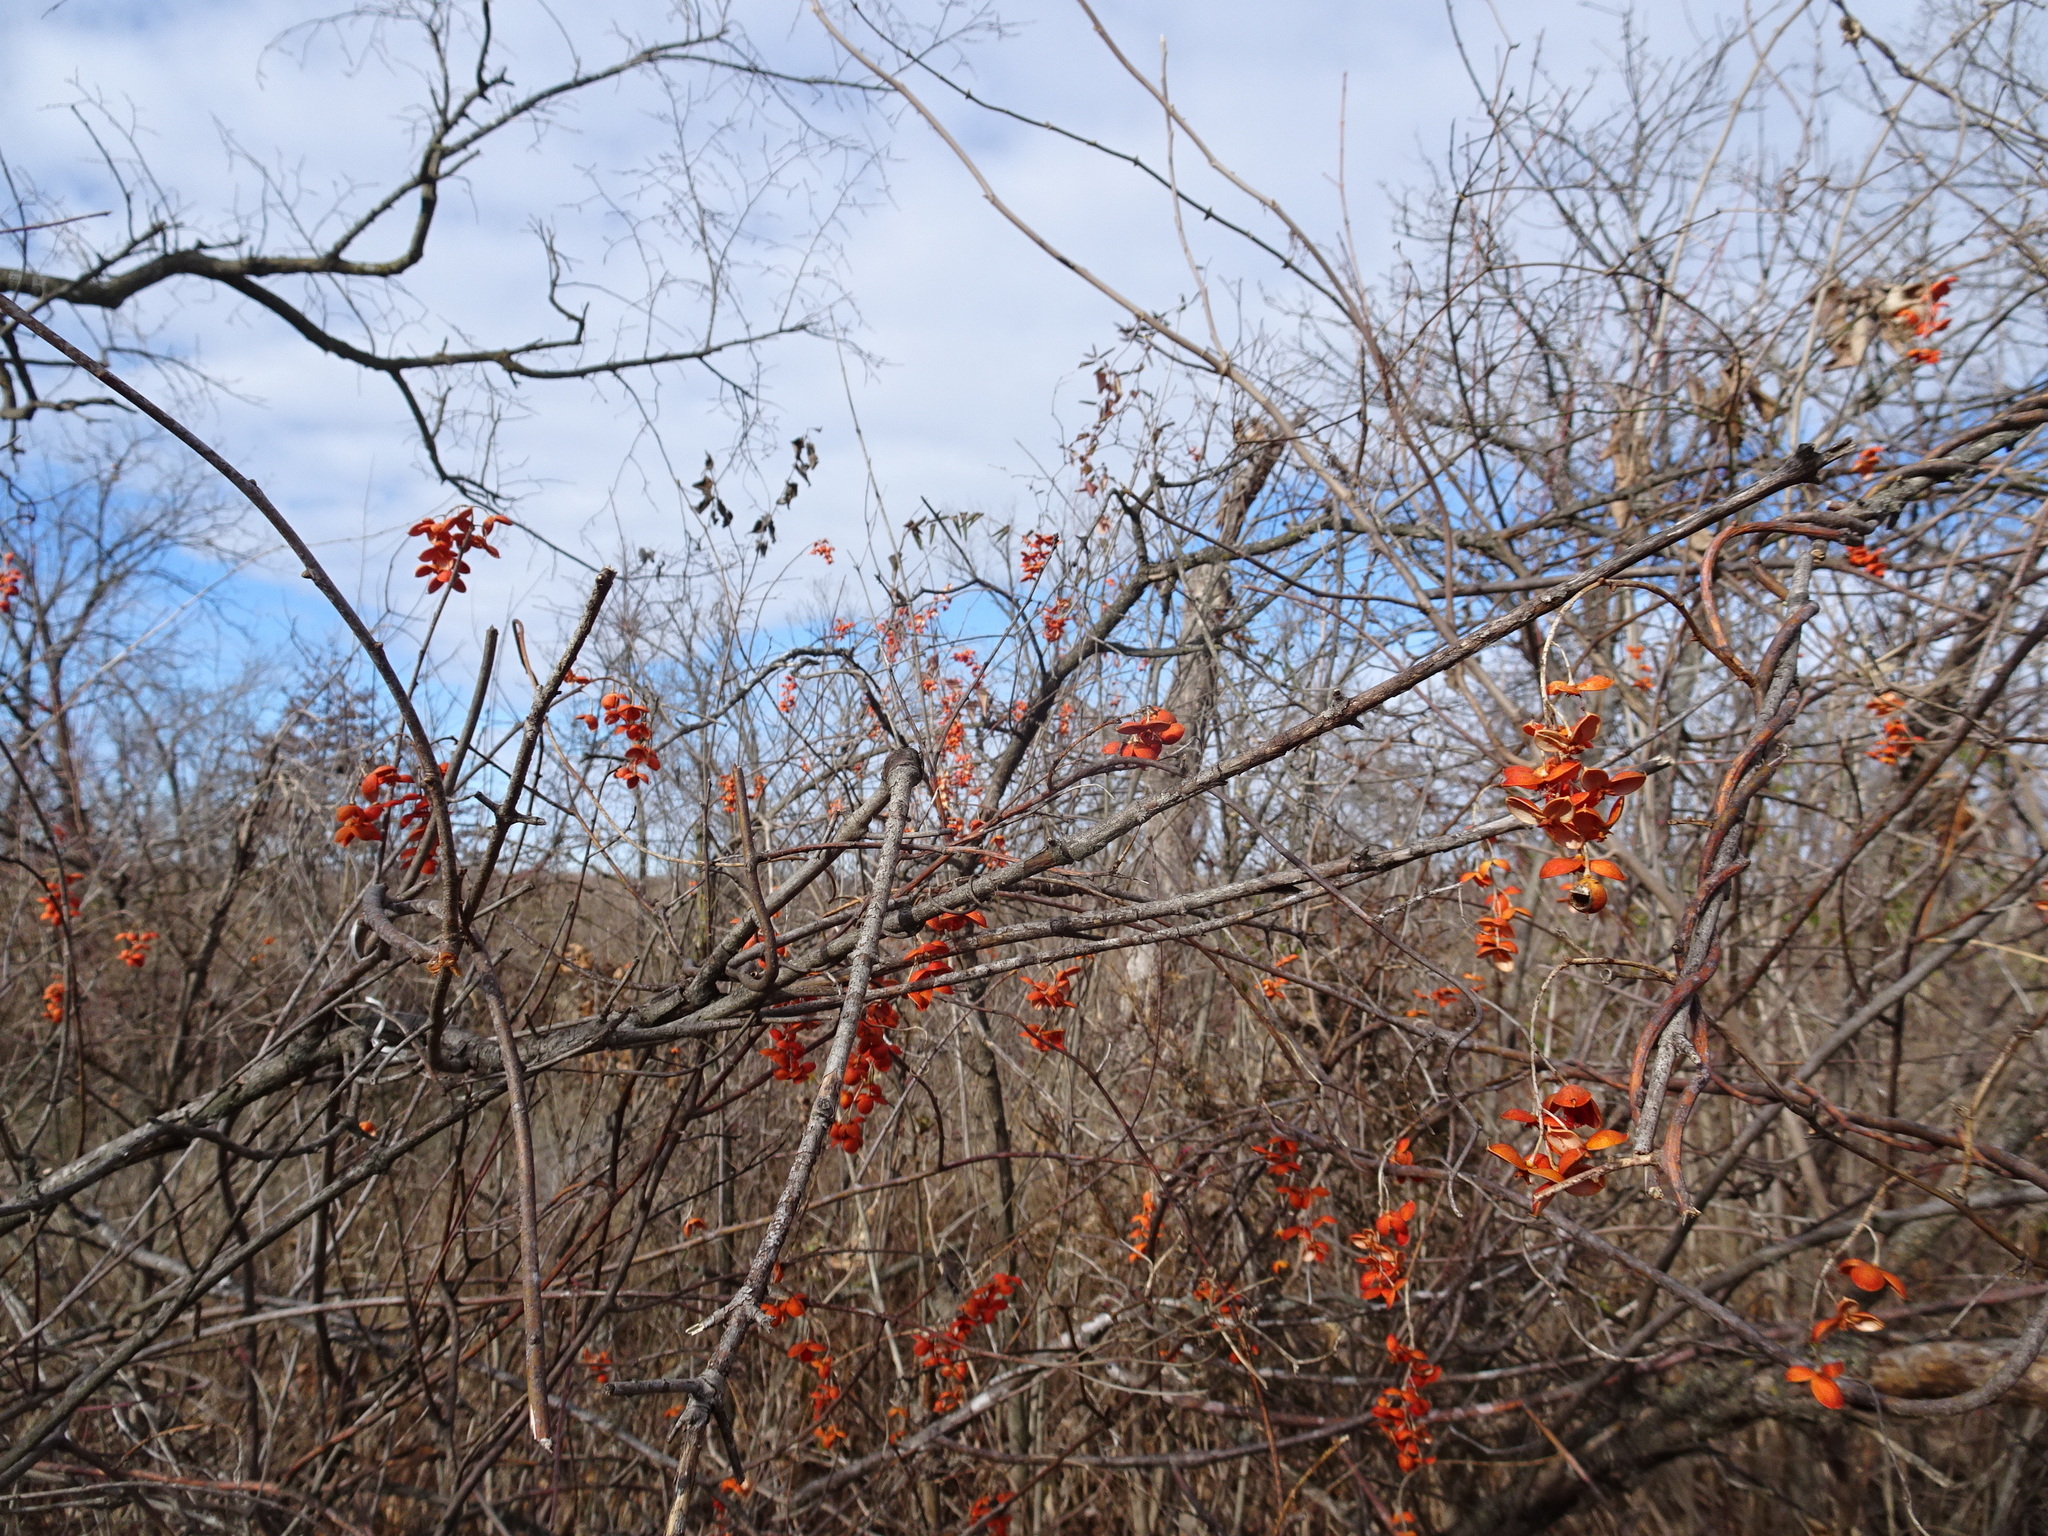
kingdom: Plantae
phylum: Tracheophyta
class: Magnoliopsida
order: Celastrales
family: Celastraceae
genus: Celastrus
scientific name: Celastrus scandens
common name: American bittersweet
